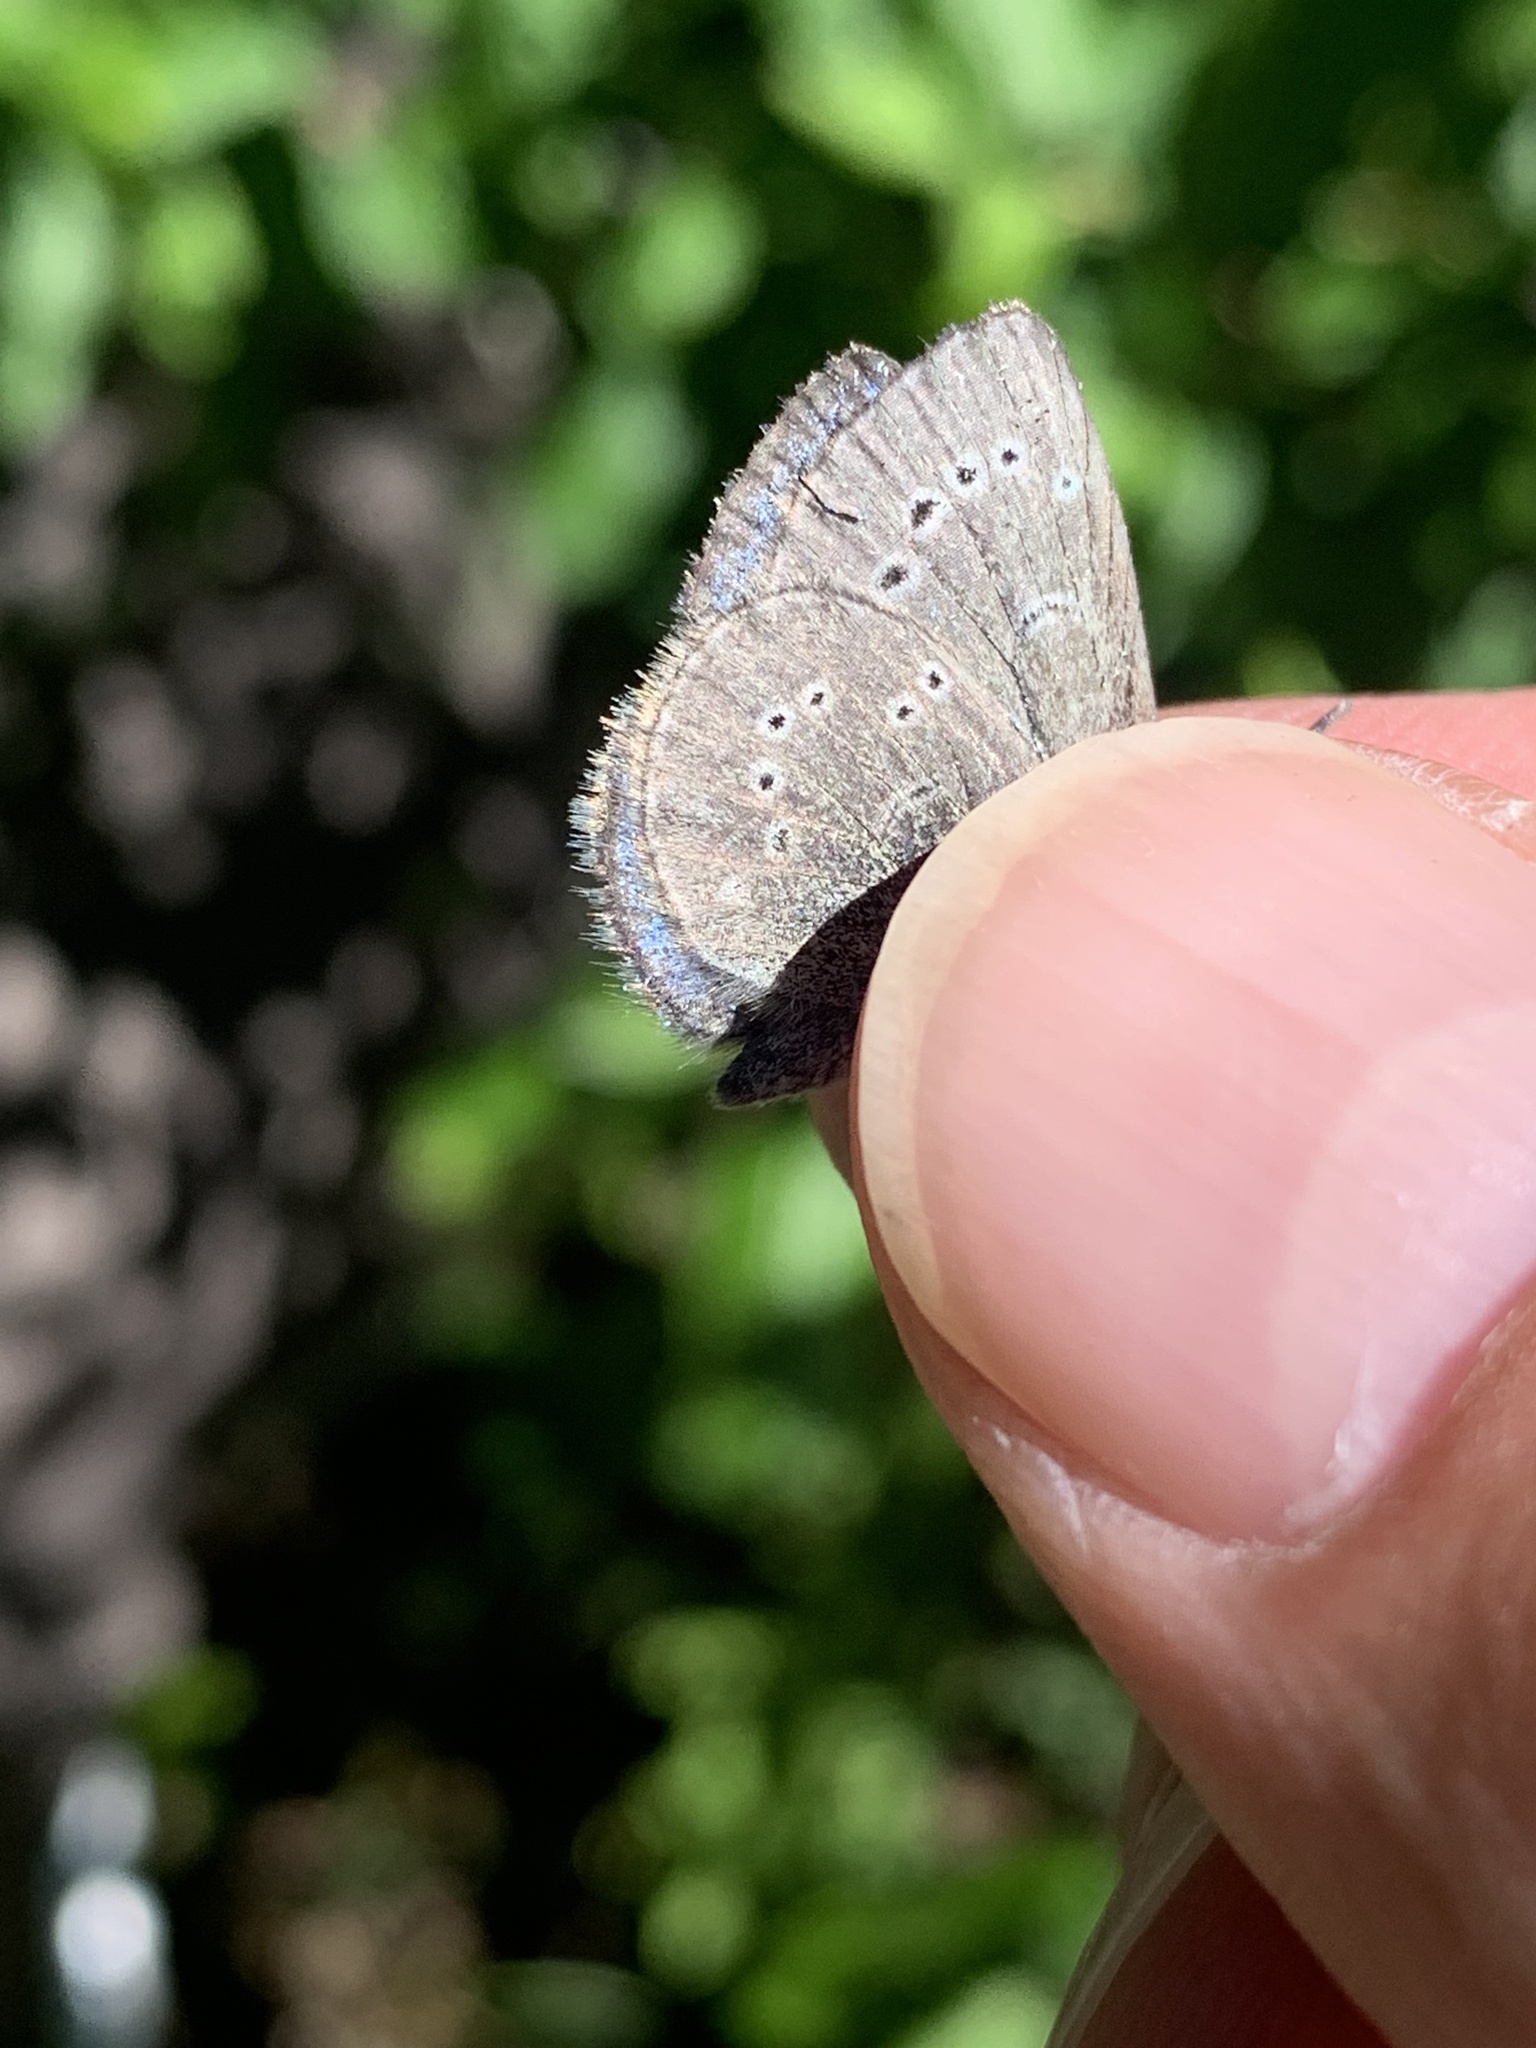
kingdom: Animalia
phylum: Arthropoda
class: Insecta
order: Lepidoptera
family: Lycaenidae
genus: Glaucopsyche
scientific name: Glaucopsyche lygdamus
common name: Silvery blue
